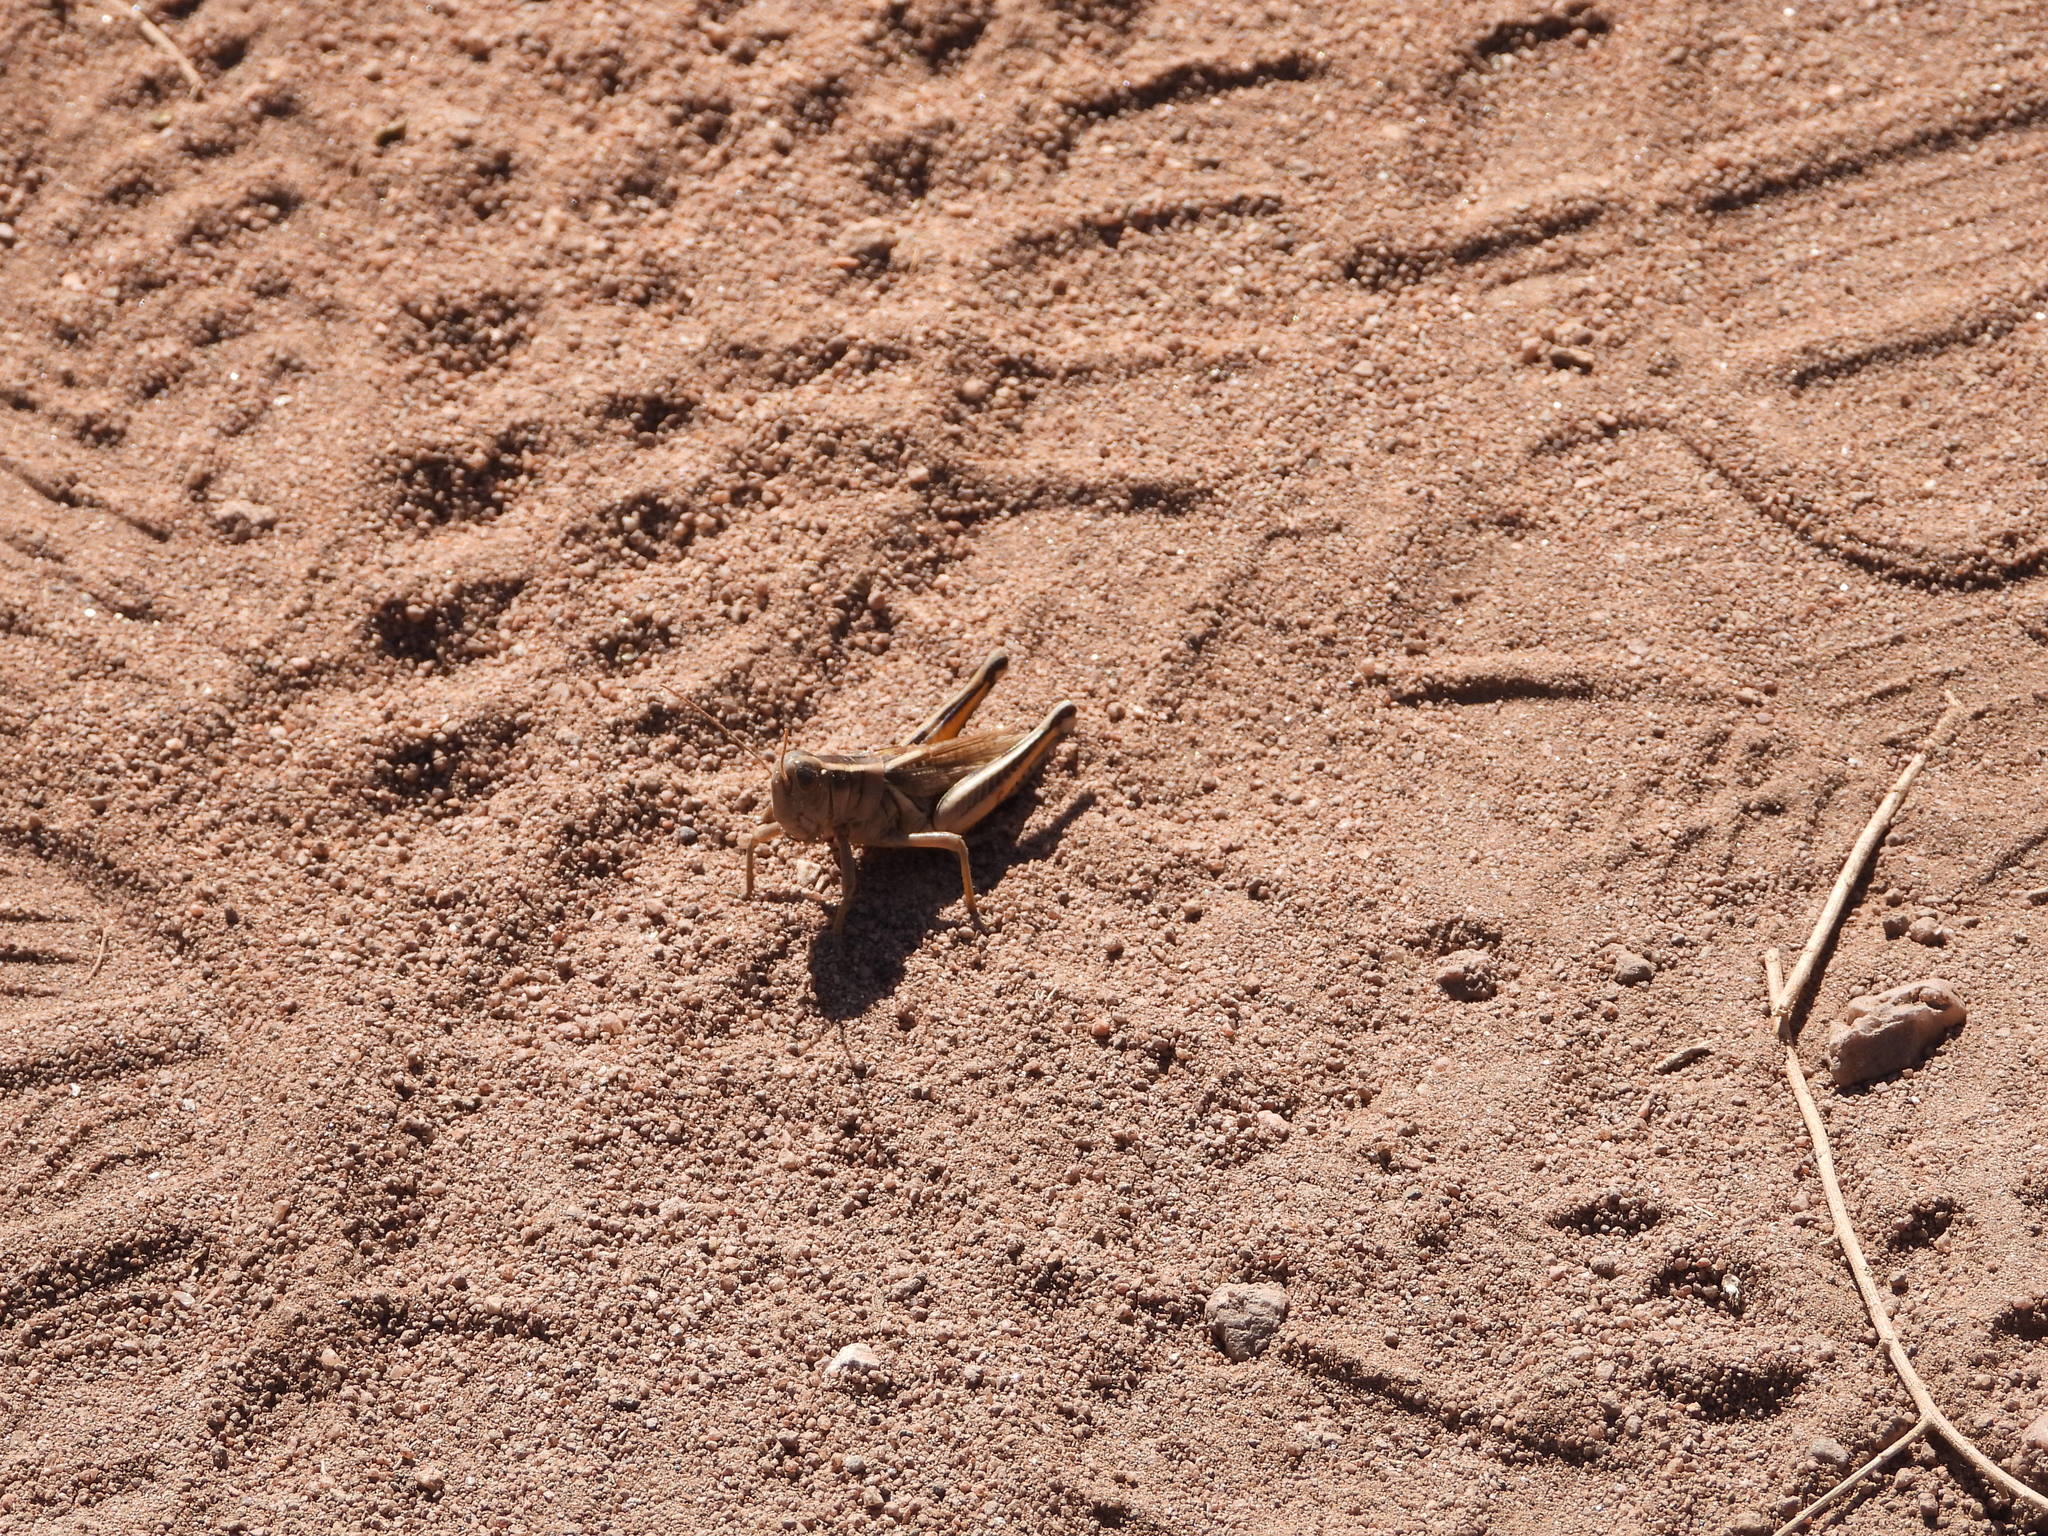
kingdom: Animalia
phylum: Arthropoda
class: Insecta
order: Orthoptera
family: Acrididae
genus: Melanoplus
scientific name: Melanoplus bivittatus
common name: Two-striped grasshopper
